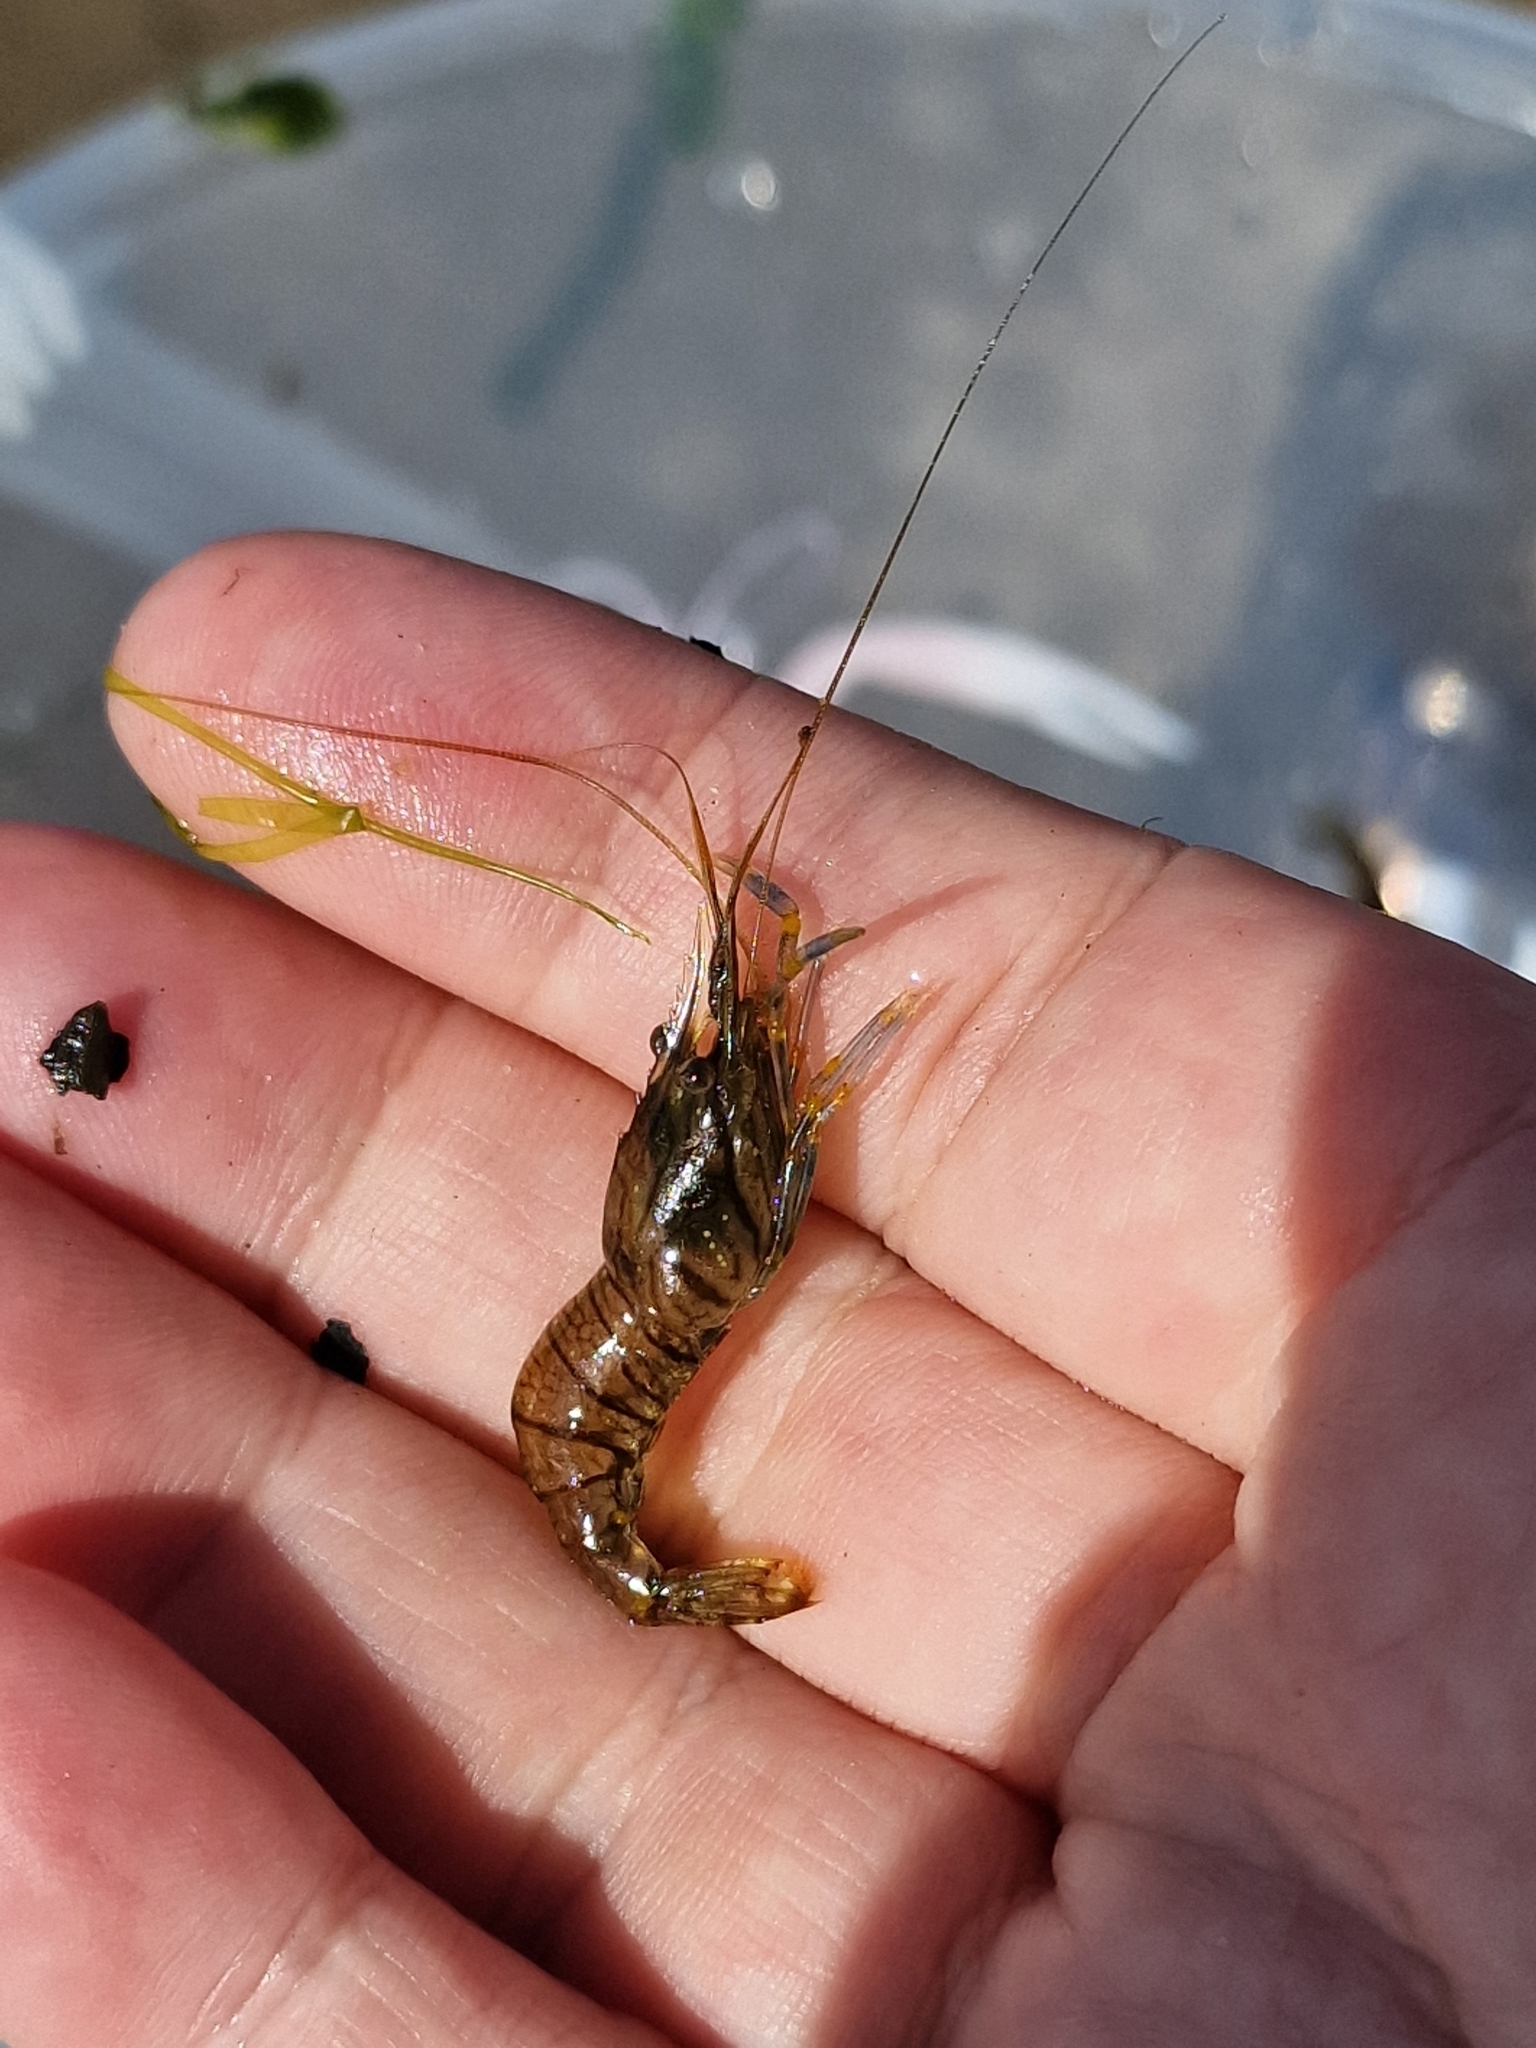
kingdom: Animalia
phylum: Arthropoda
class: Malacostraca
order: Decapoda
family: Palaemonidae
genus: Palaemon
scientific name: Palaemon elegans
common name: Grass prawm
